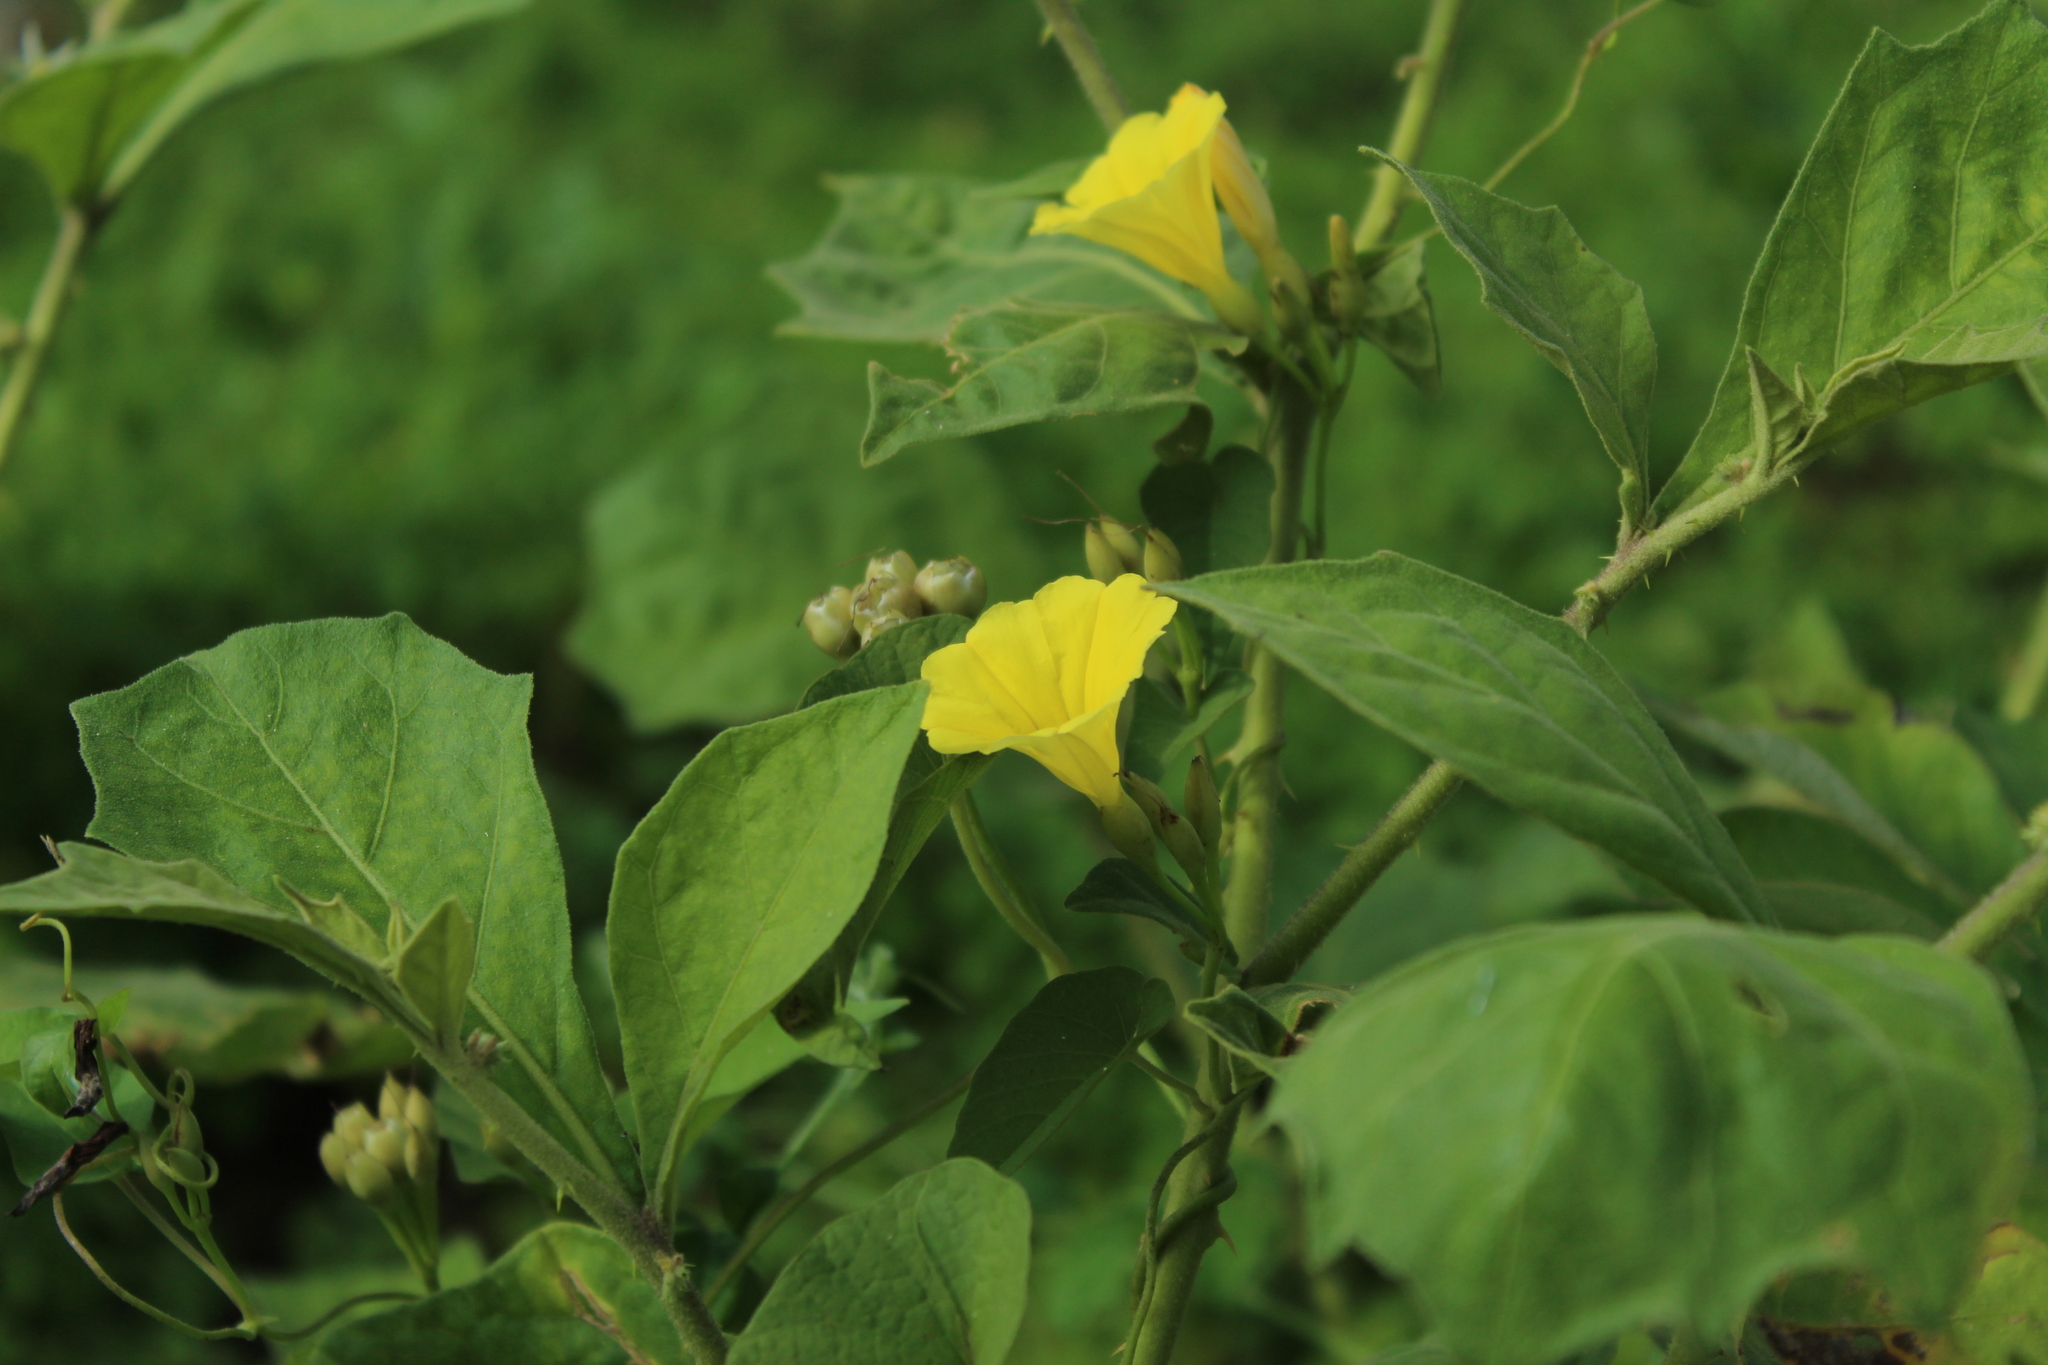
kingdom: Plantae
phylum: Tracheophyta
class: Magnoliopsida
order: Solanales
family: Convolvulaceae
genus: Camonea
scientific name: Camonea umbellata
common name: Hogvine
